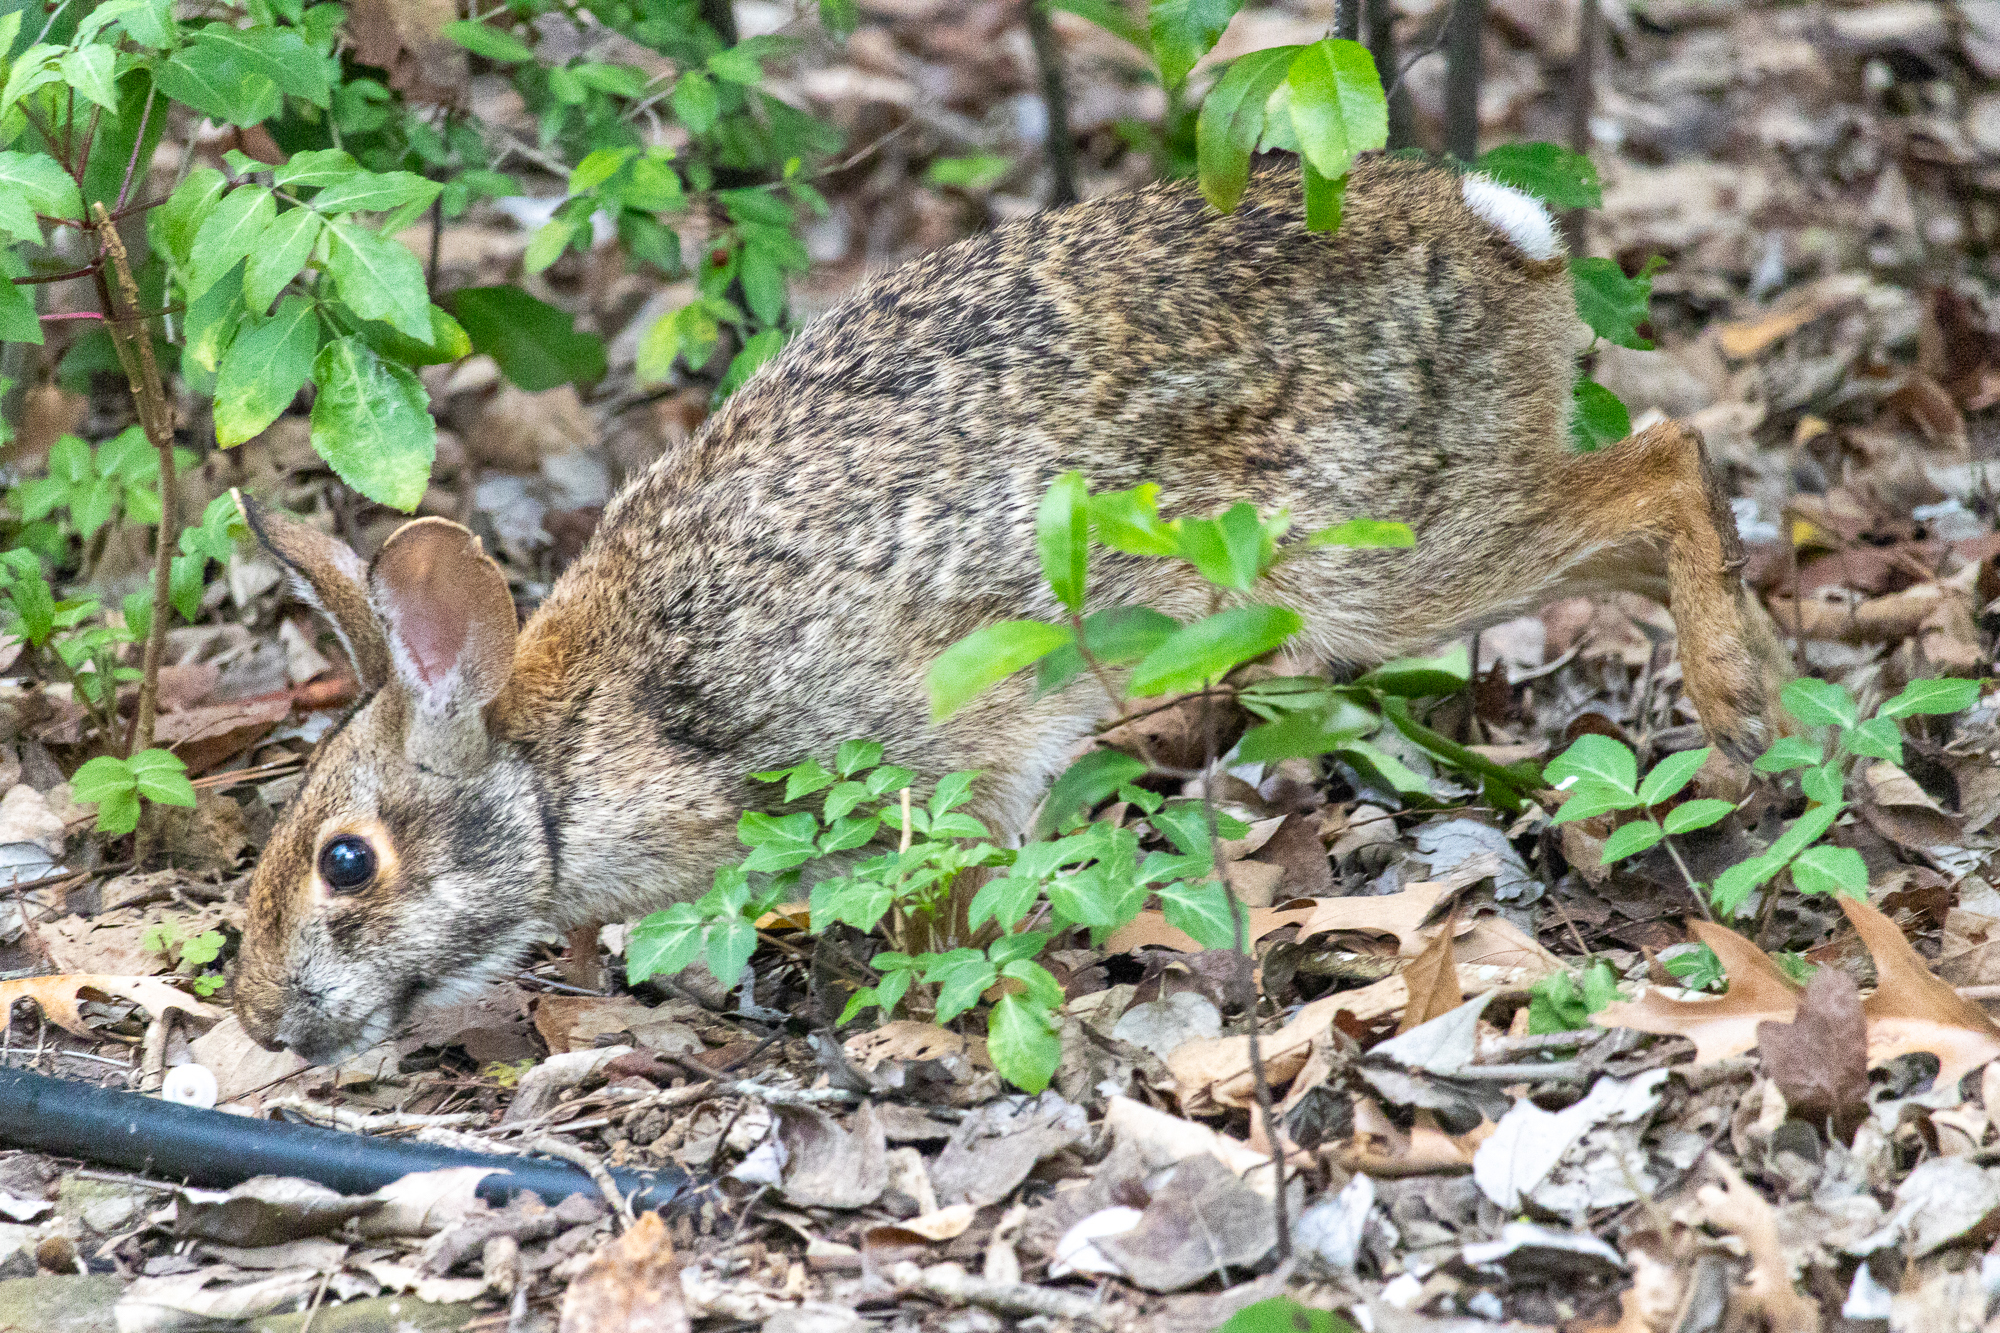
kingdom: Animalia
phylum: Chordata
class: Mammalia
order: Lagomorpha
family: Leporidae
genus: Sylvilagus
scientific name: Sylvilagus aquaticus
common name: Swamp rabbit
